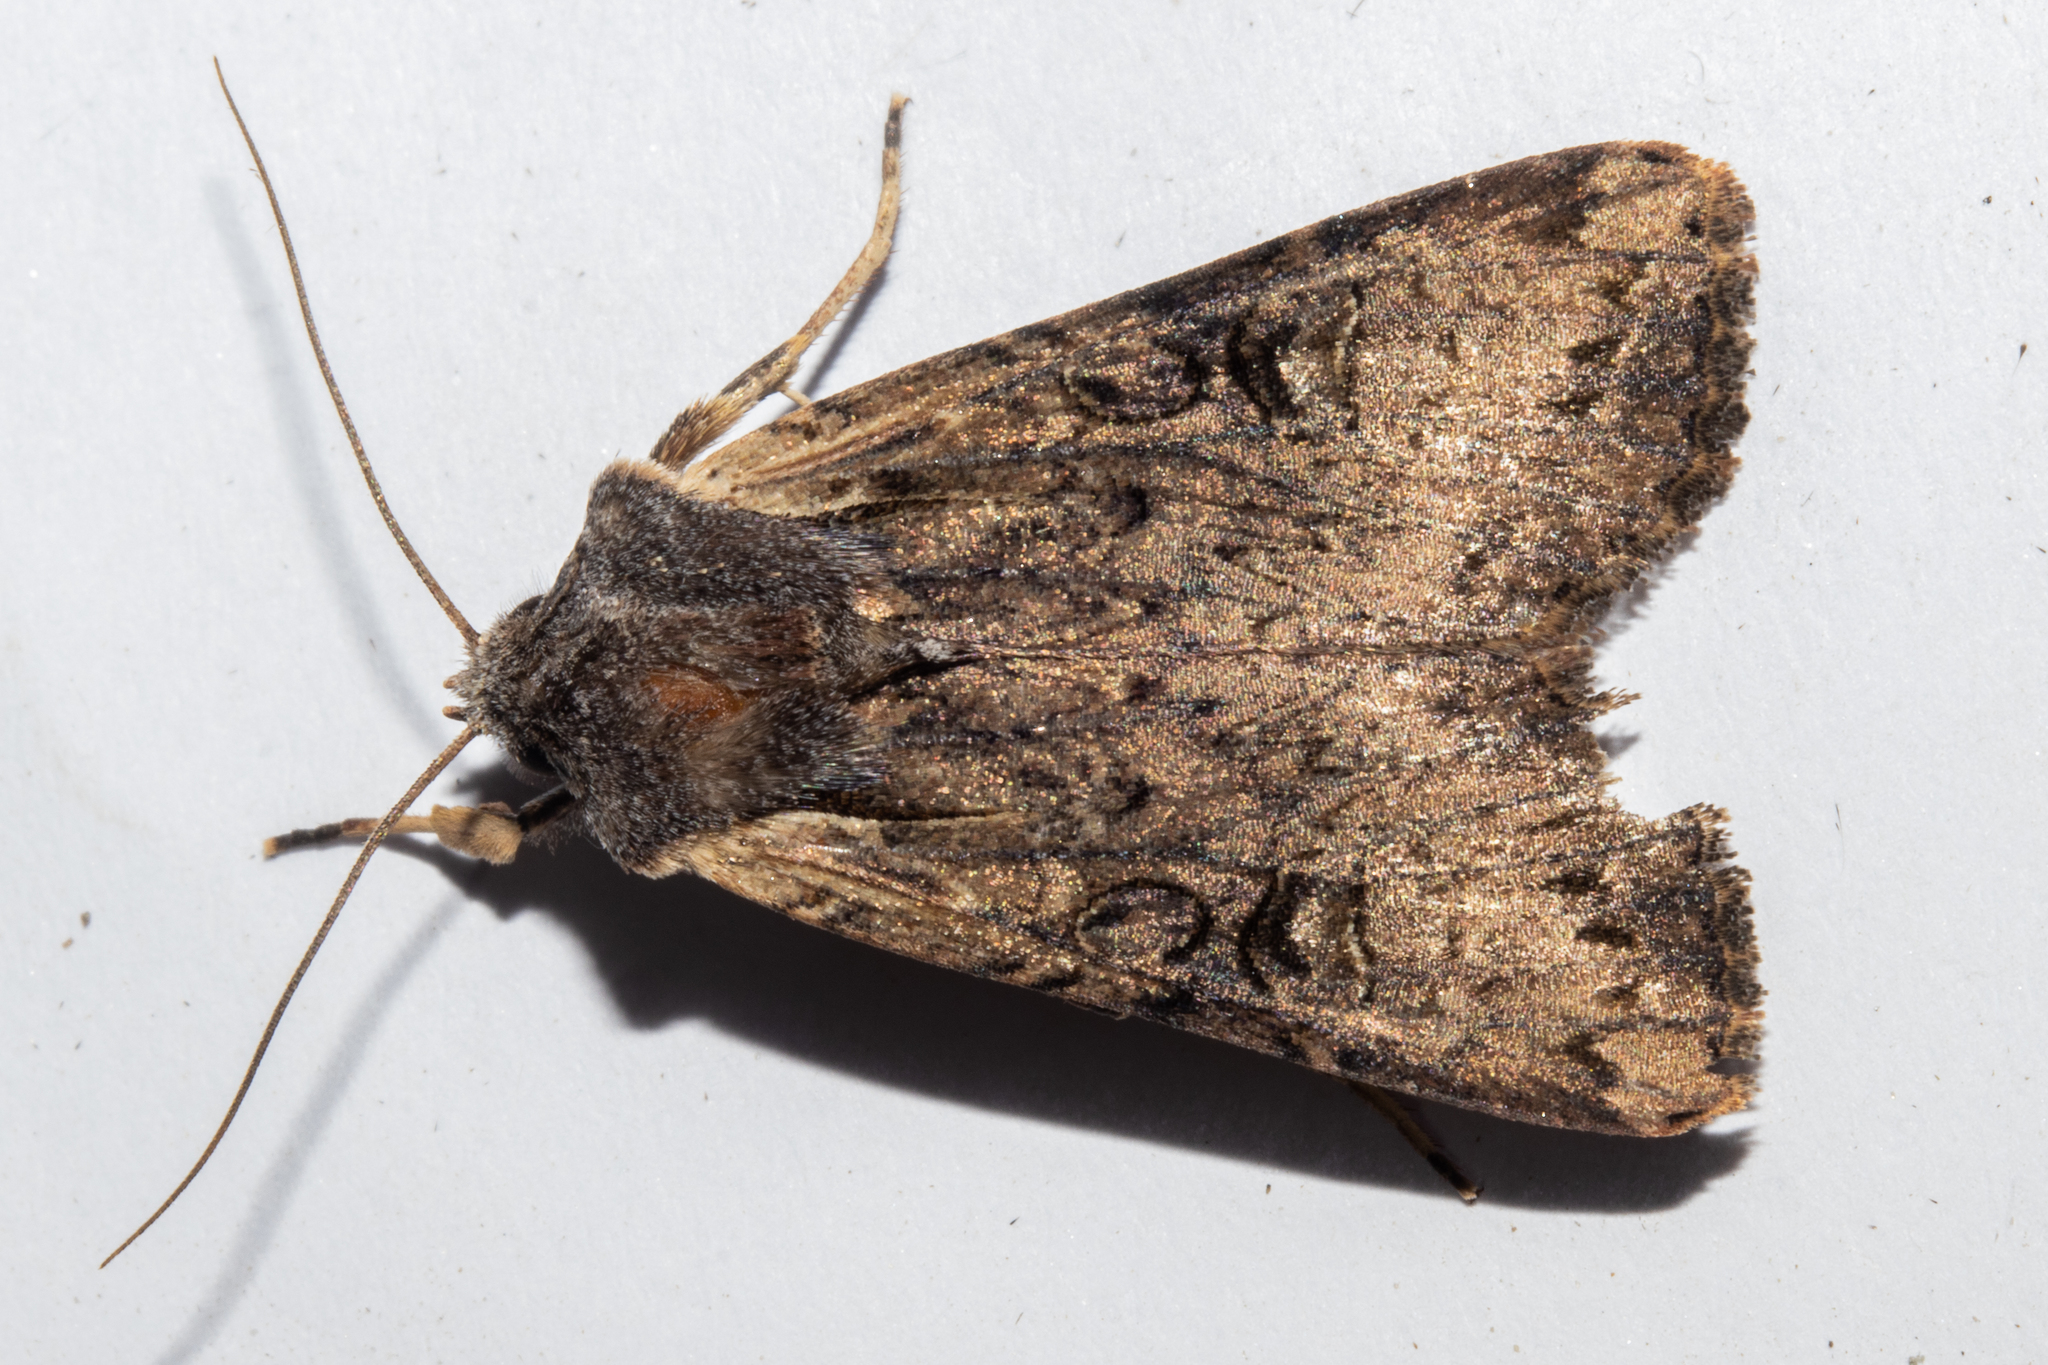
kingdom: Animalia
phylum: Arthropoda
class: Insecta
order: Lepidoptera
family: Noctuidae
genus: Ichneutica
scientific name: Ichneutica omoplaca
